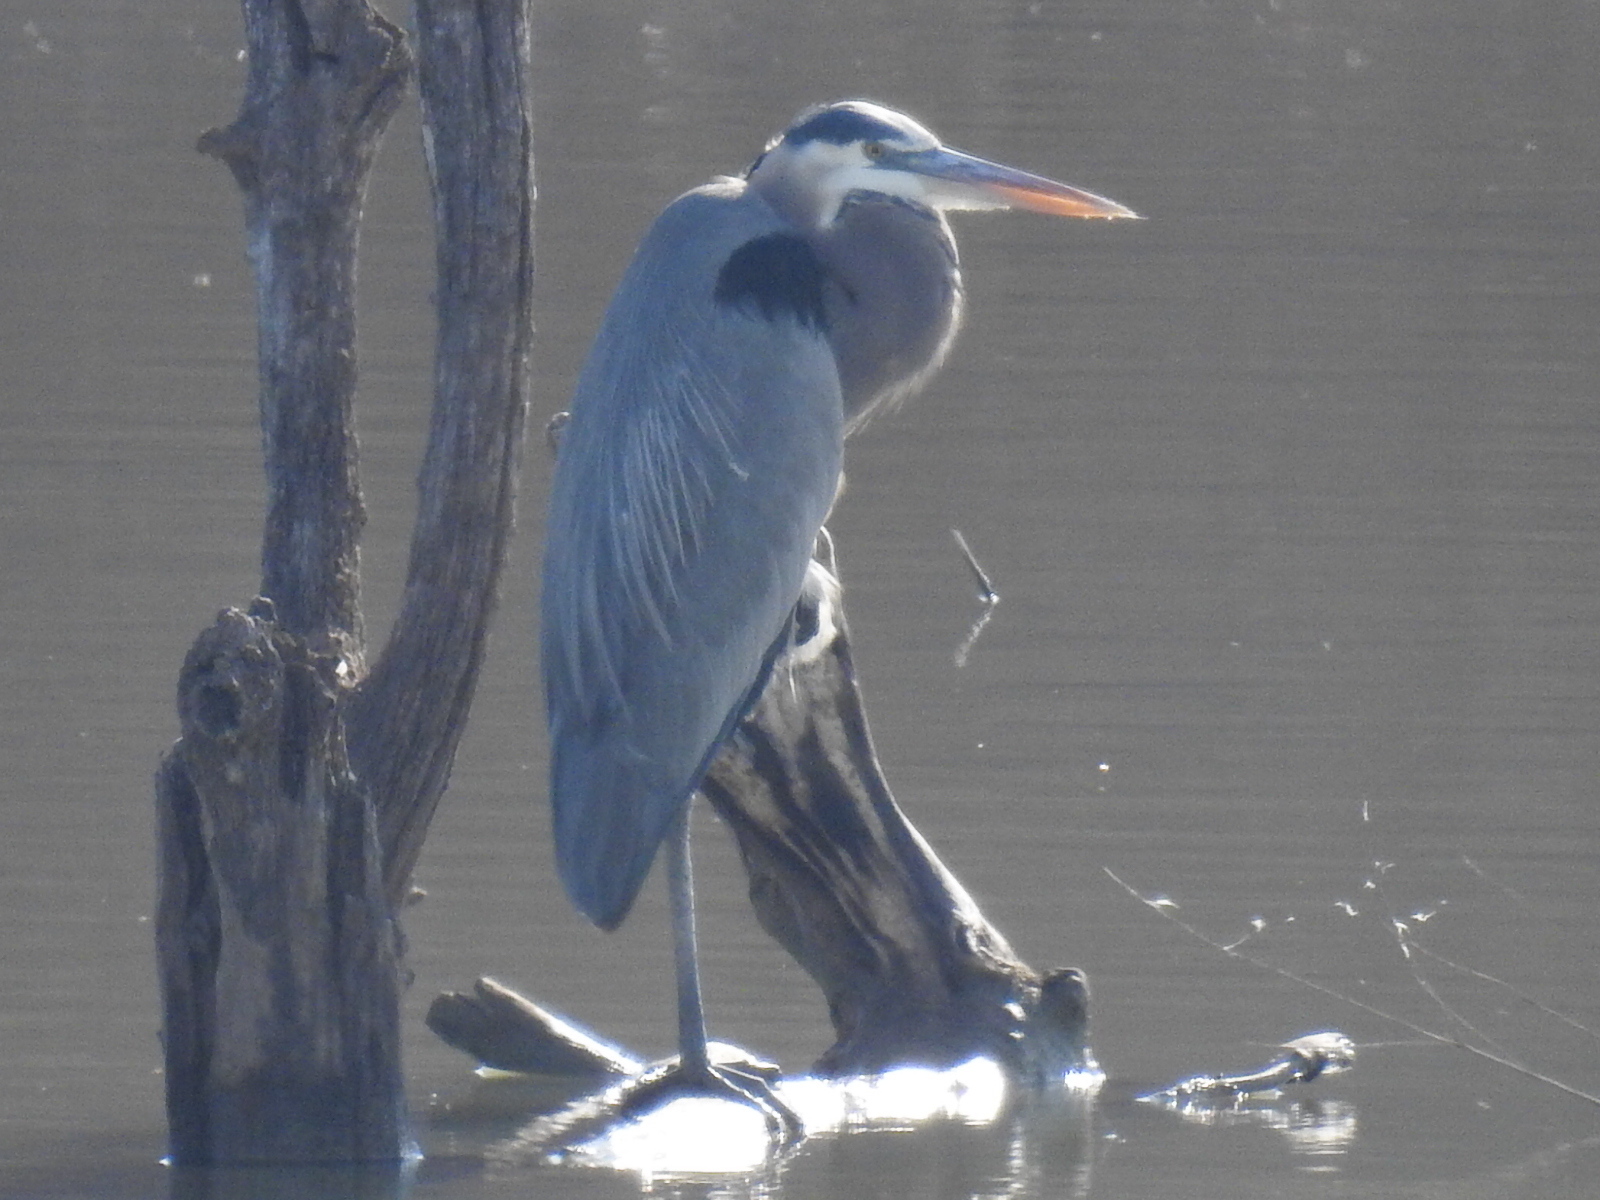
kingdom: Animalia
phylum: Chordata
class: Aves
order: Pelecaniformes
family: Ardeidae
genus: Ardea
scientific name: Ardea herodias
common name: Great blue heron
